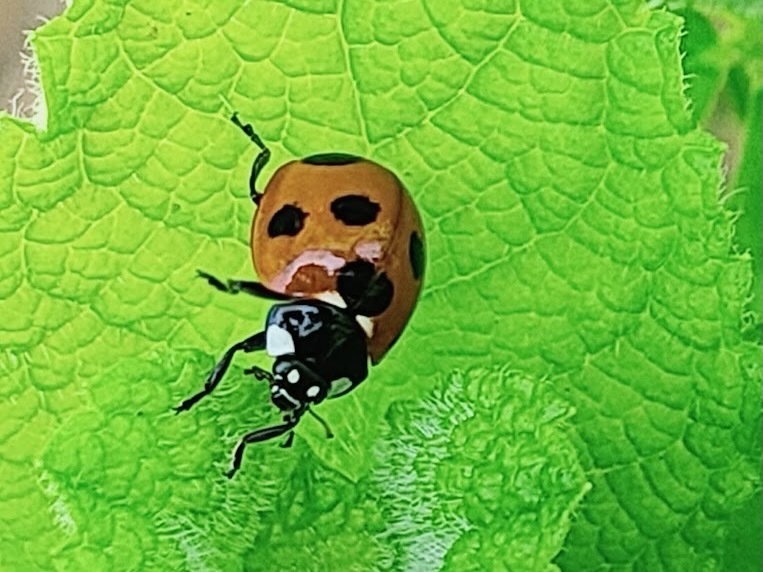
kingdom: Animalia
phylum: Arthropoda
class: Insecta
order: Coleoptera
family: Coccinellidae
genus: Coccinella
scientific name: Coccinella septempunctata
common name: Sevenspotted lady beetle
